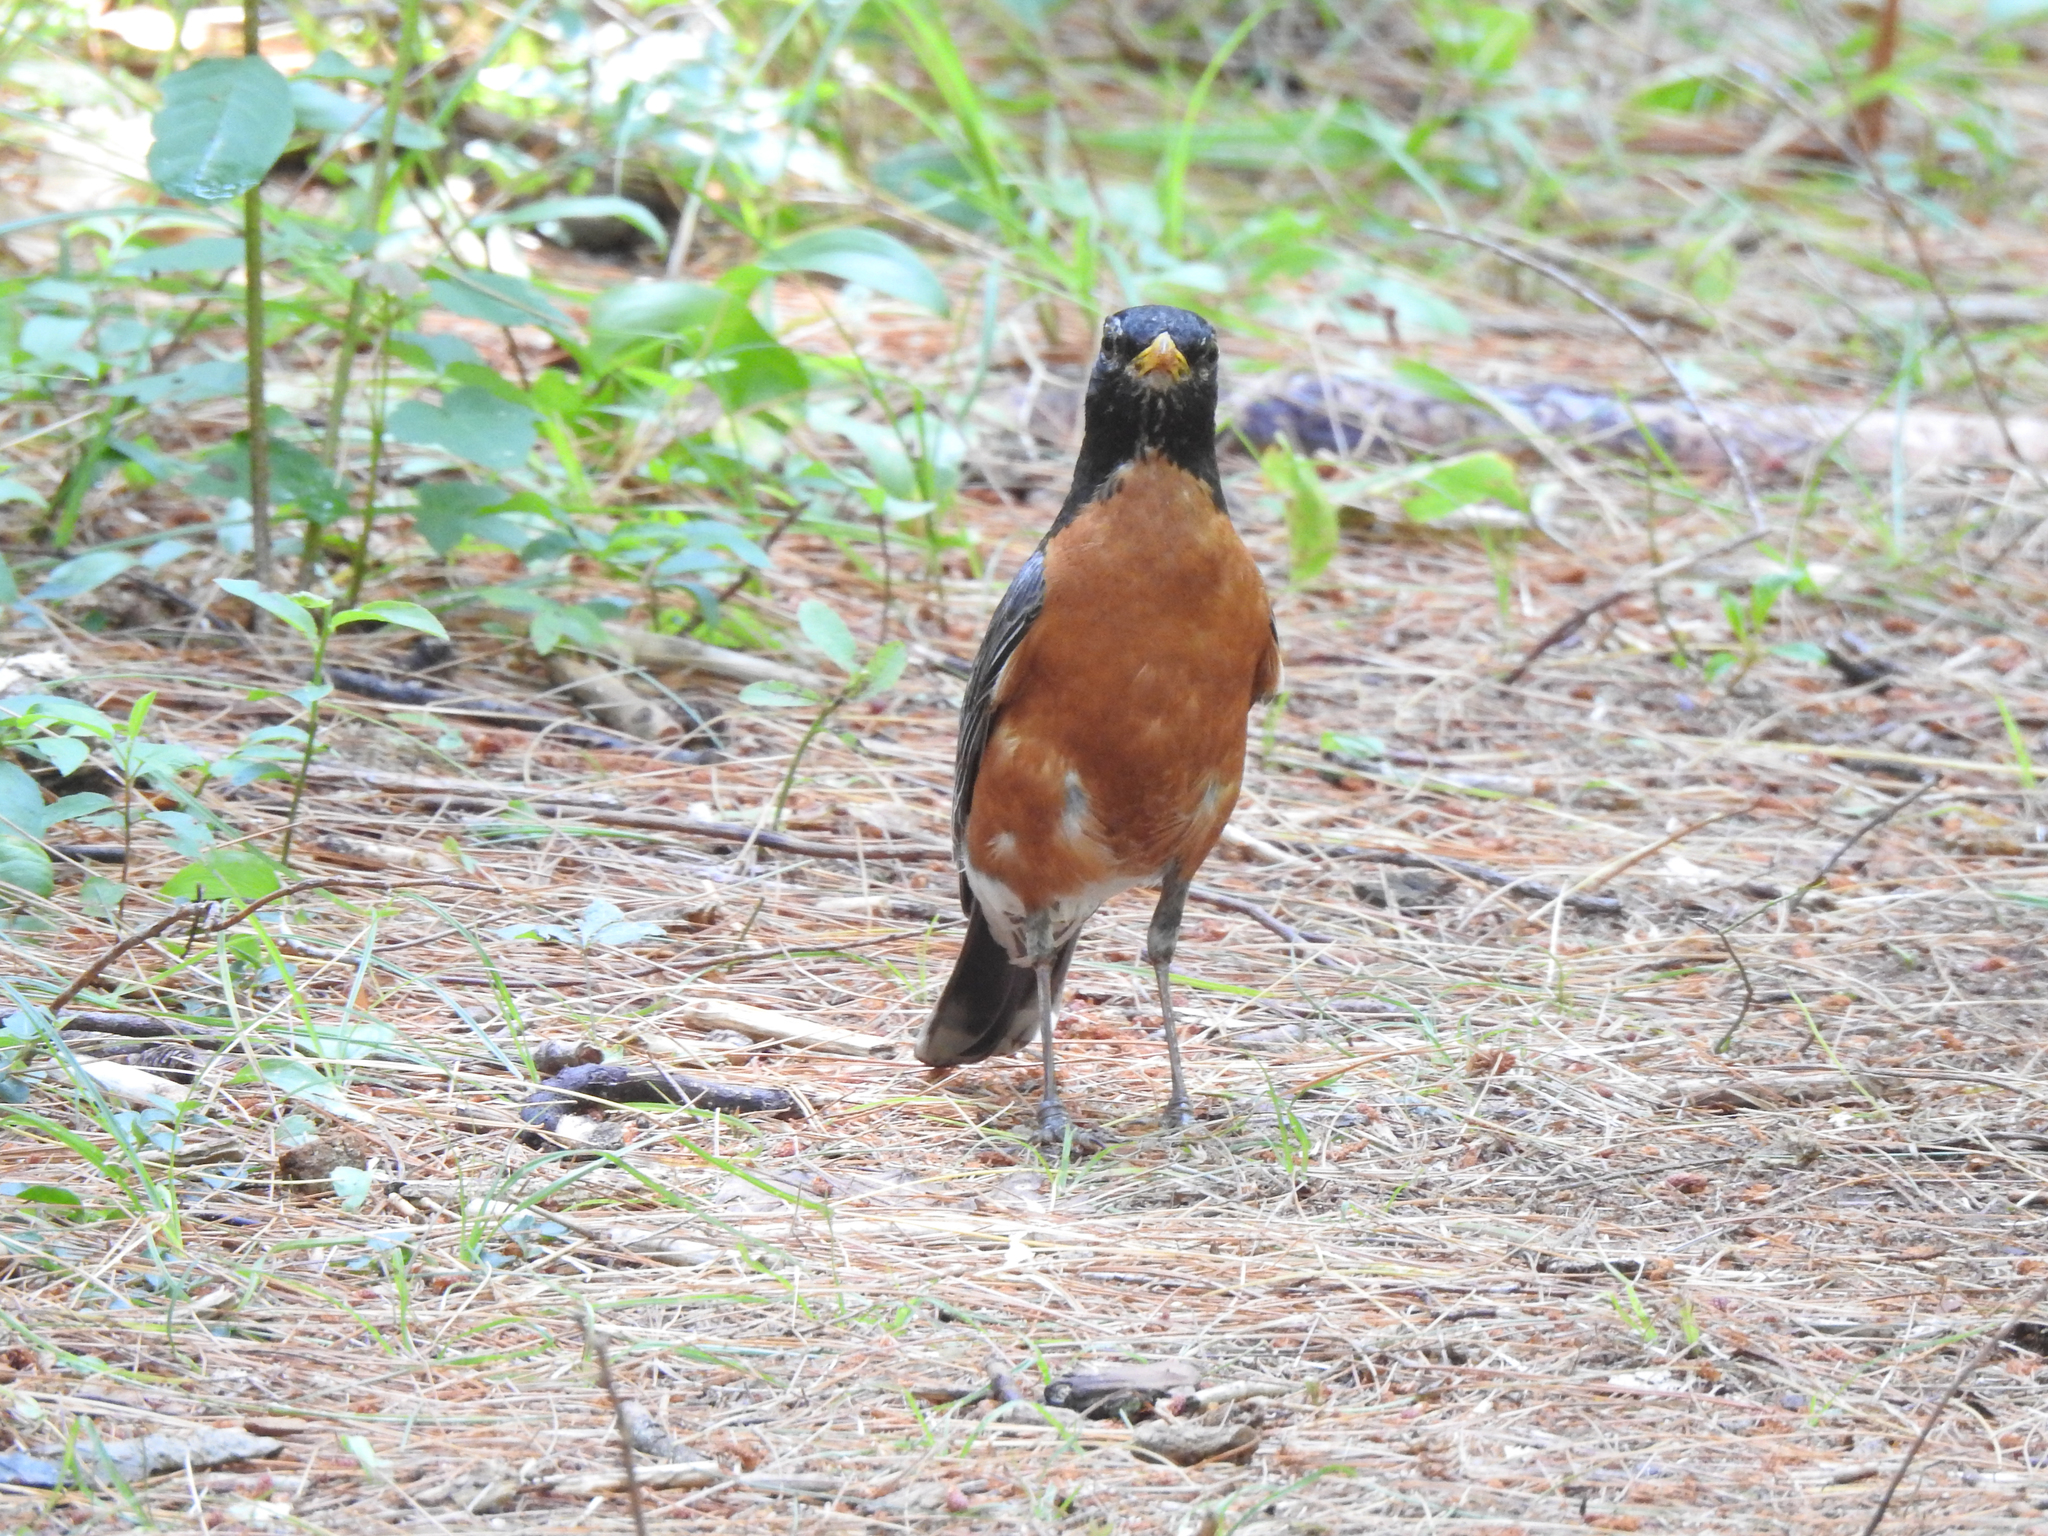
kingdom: Animalia
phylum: Chordata
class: Aves
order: Passeriformes
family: Turdidae
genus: Turdus
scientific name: Turdus migratorius
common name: American robin
